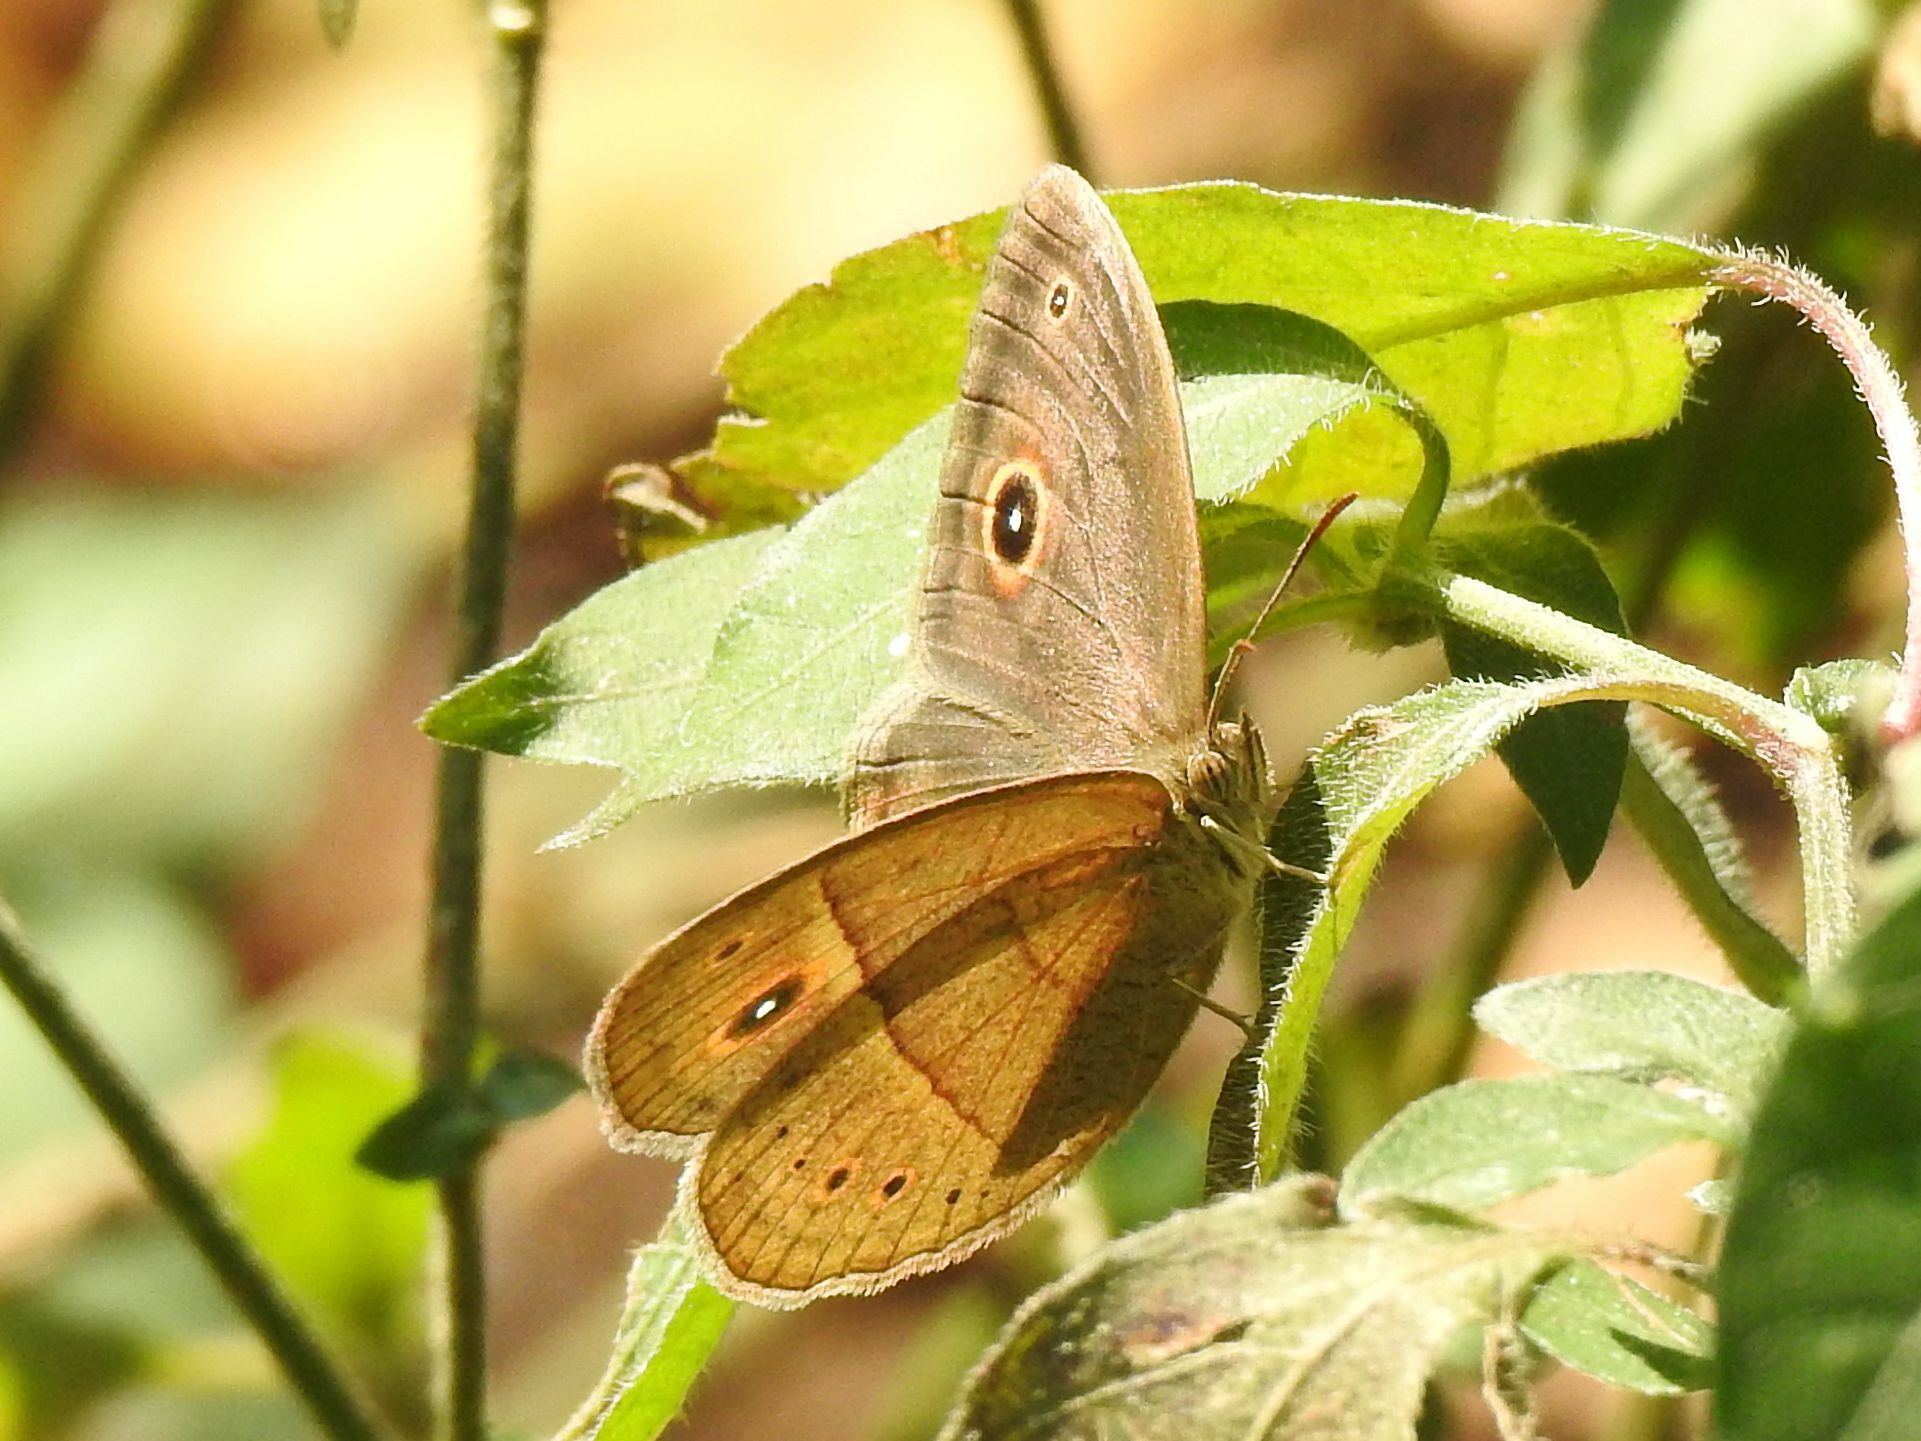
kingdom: Animalia
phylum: Arthropoda
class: Insecta
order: Lepidoptera
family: Nymphalidae
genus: Heteropsis
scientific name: Heteropsis perspicua
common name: Eyed bush brown
